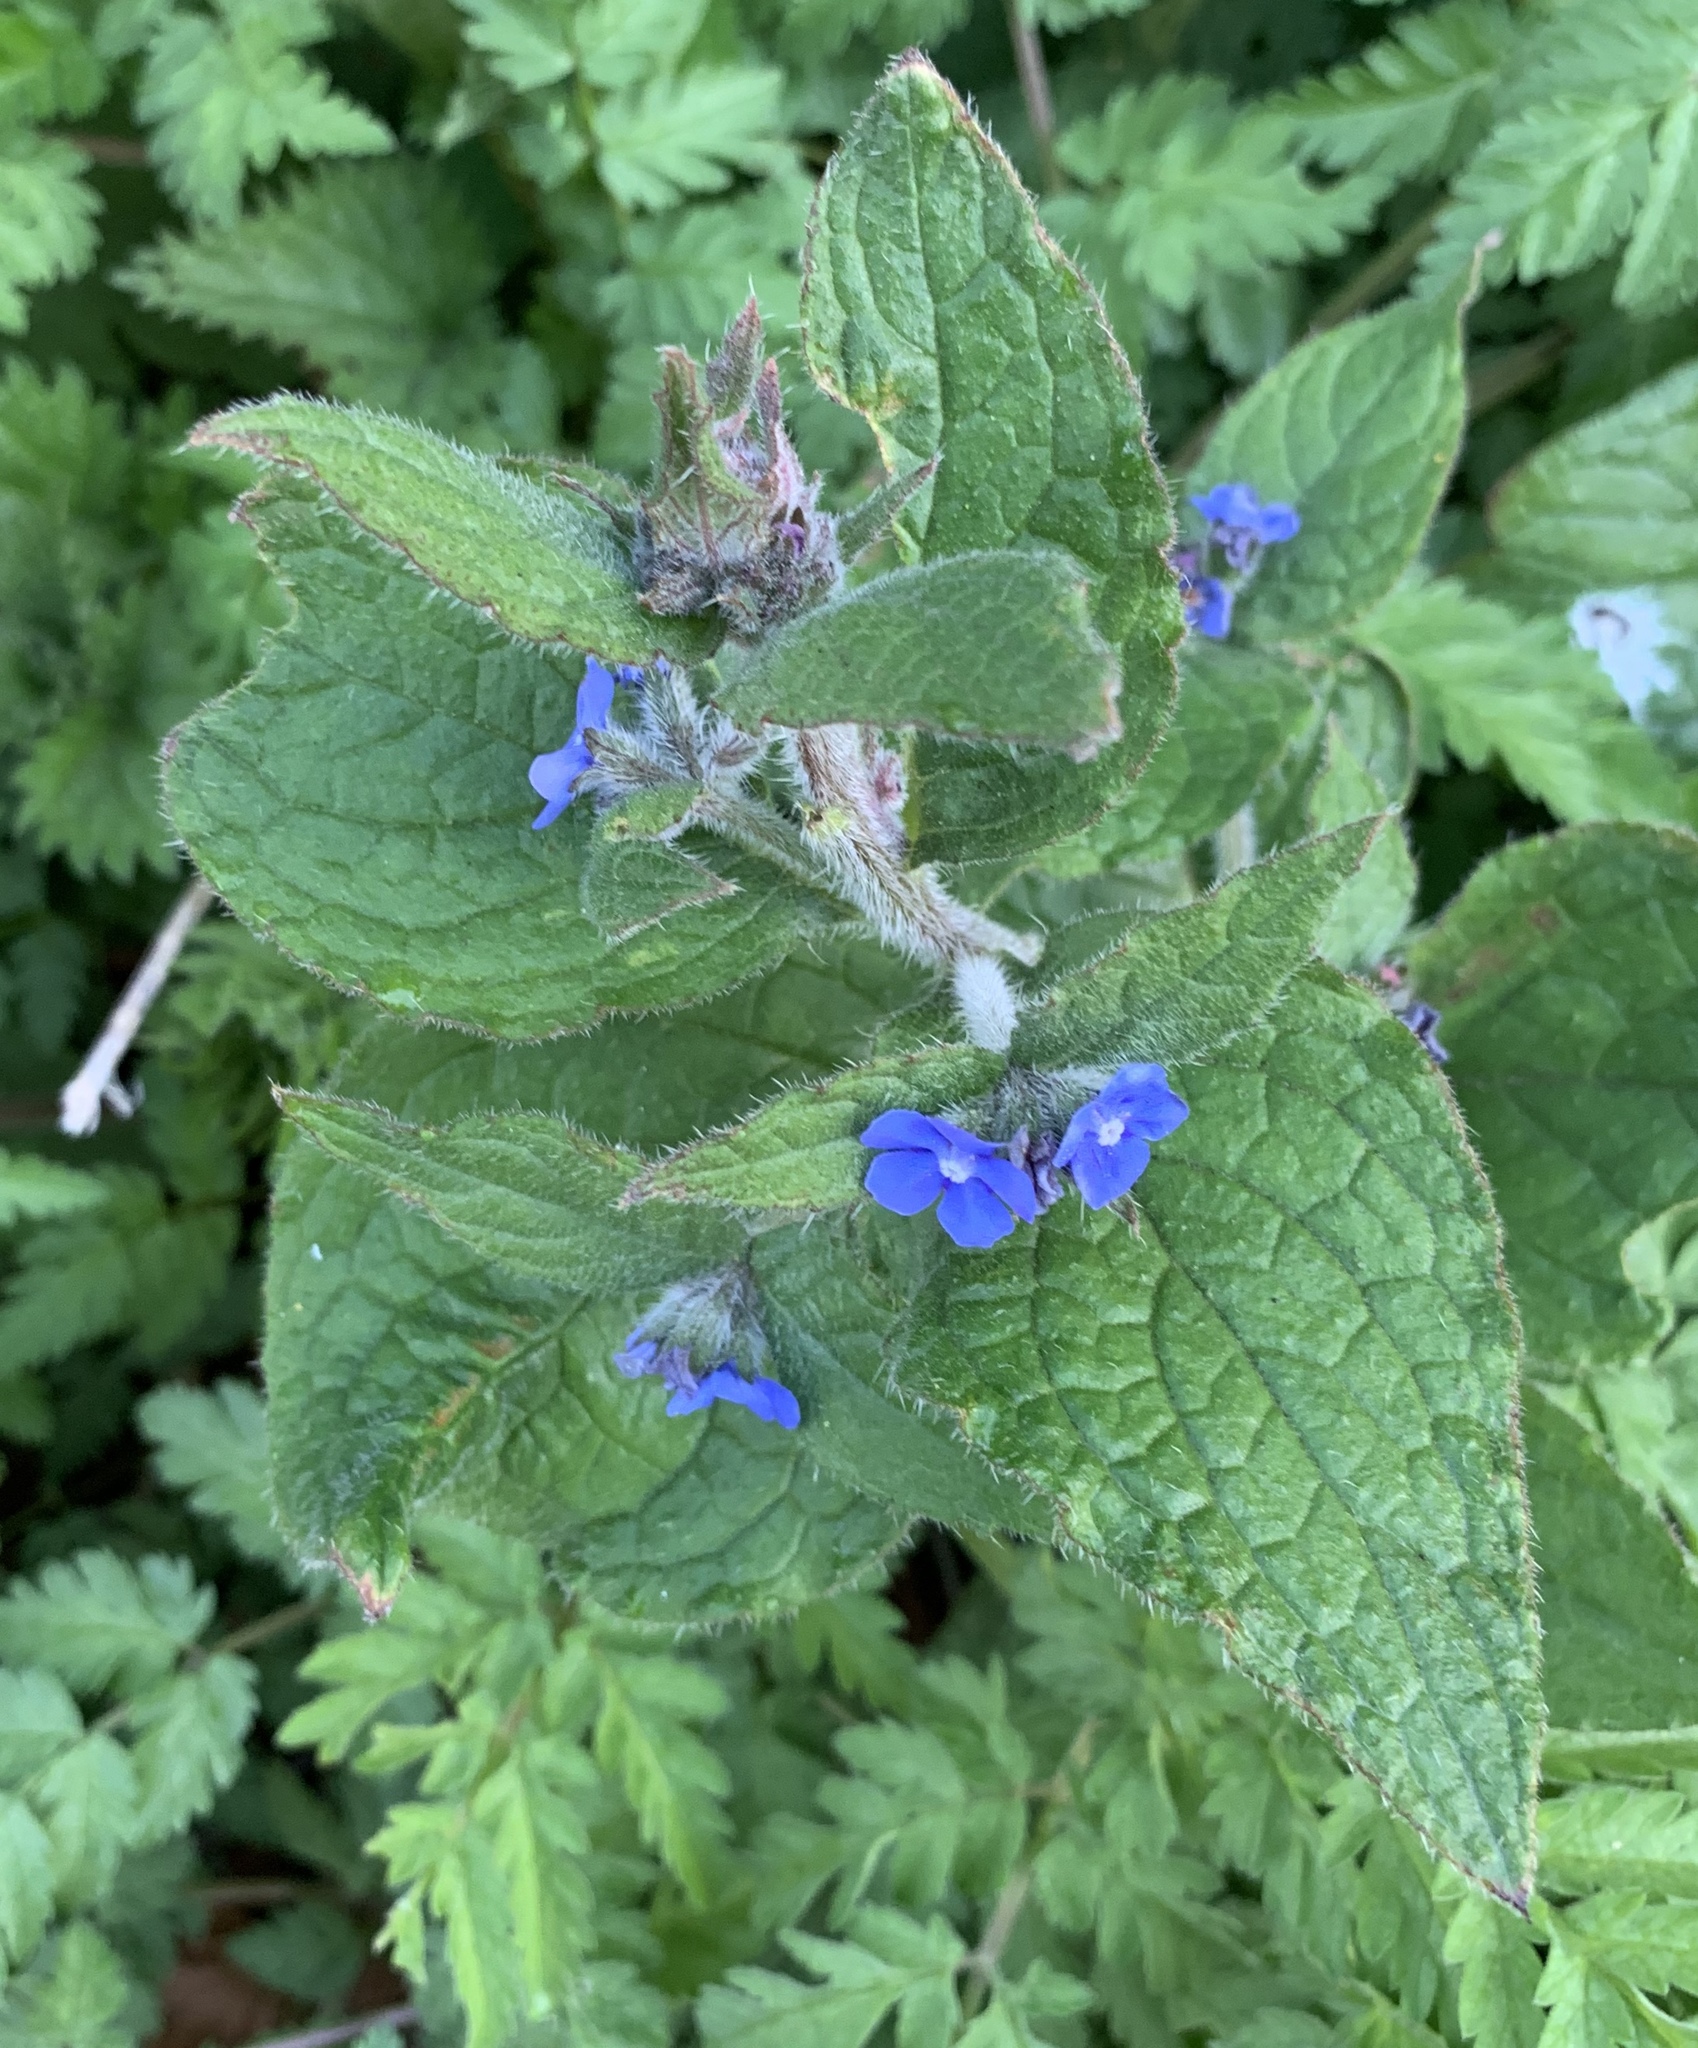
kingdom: Plantae
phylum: Tracheophyta
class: Magnoliopsida
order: Boraginales
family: Boraginaceae
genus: Pentaglottis
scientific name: Pentaglottis sempervirens
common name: Green alkanet
